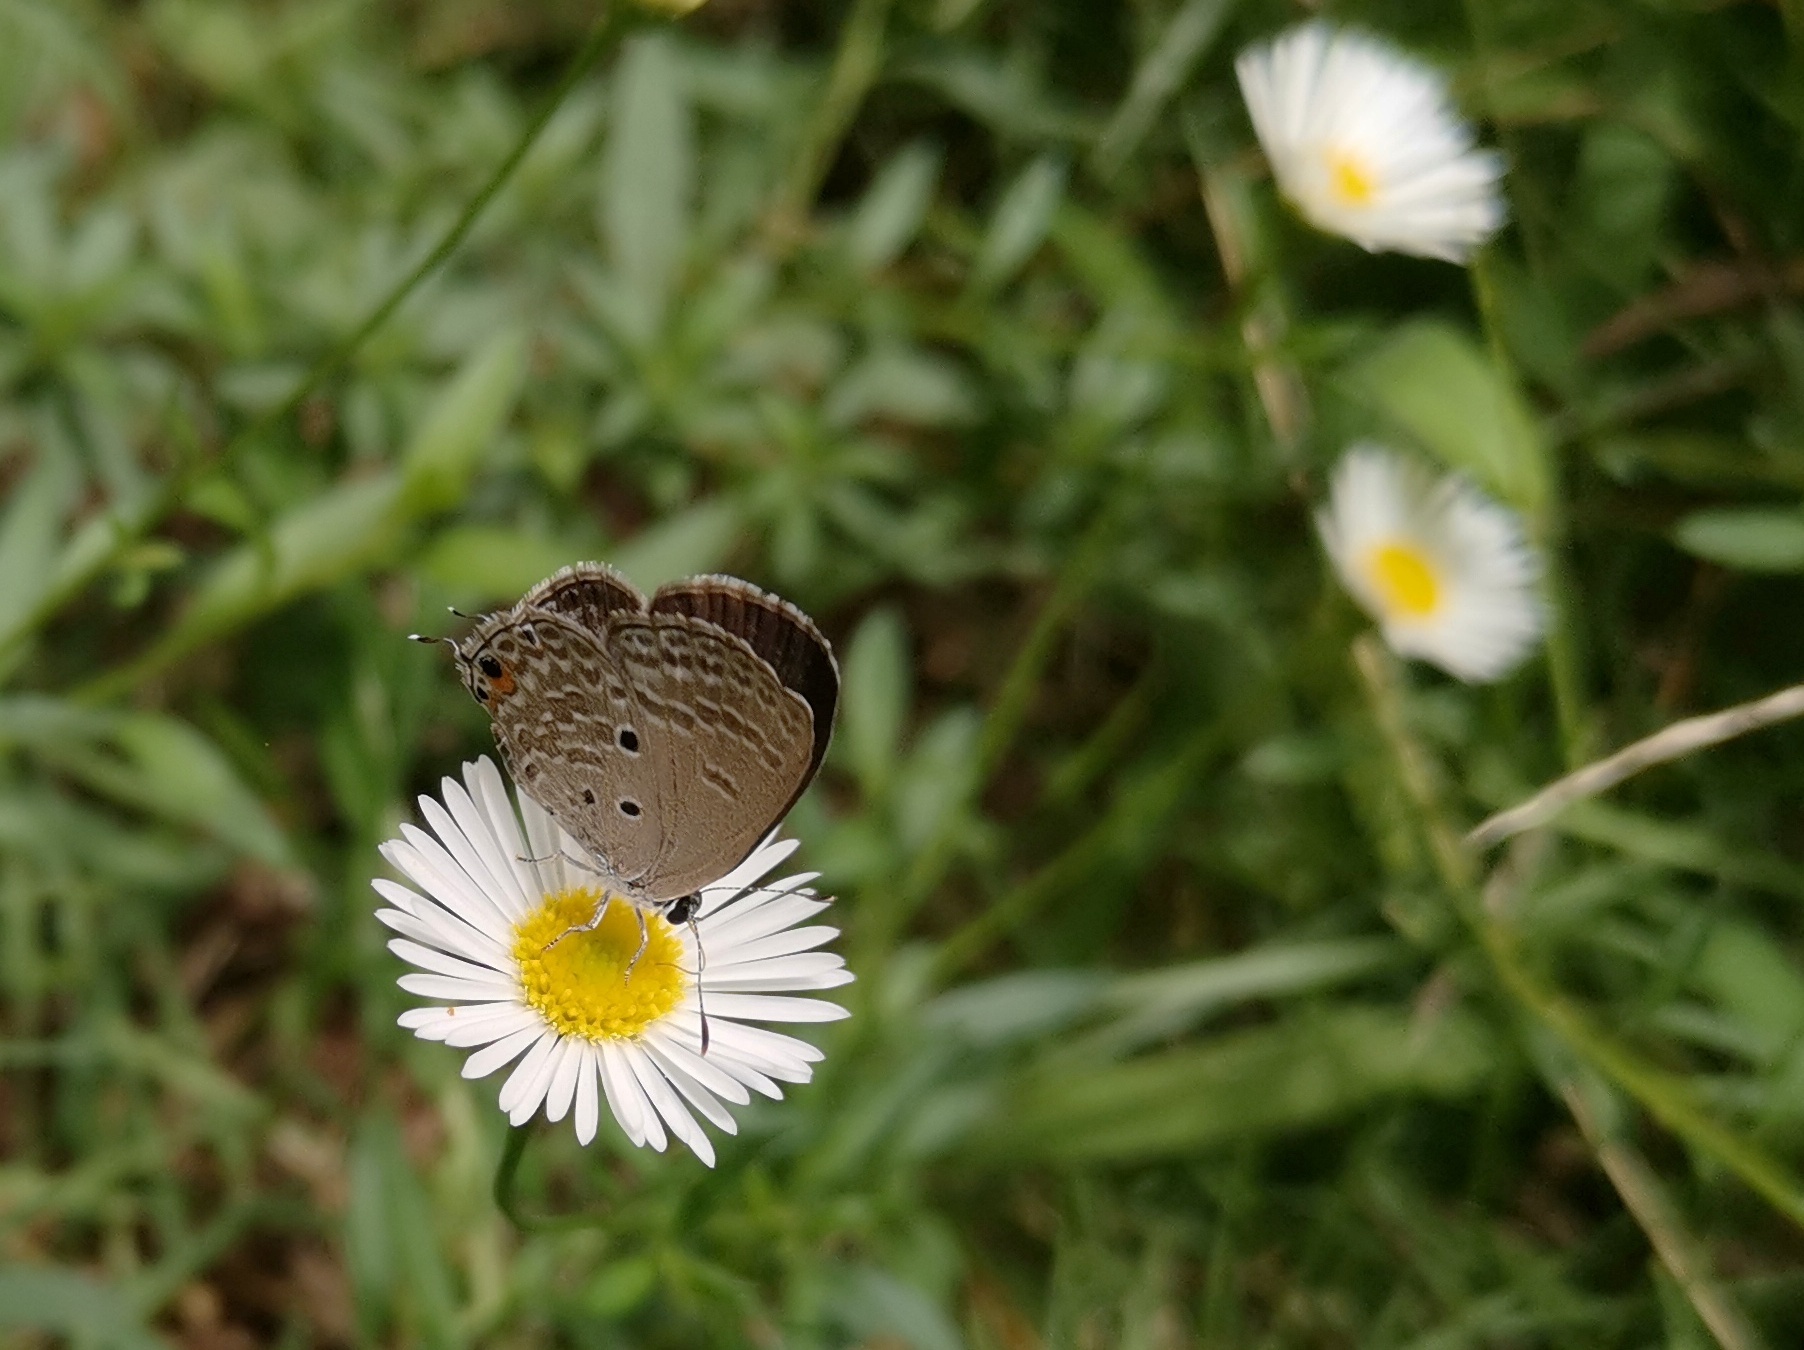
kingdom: Animalia
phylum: Arthropoda
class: Insecta
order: Lepidoptera
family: Lycaenidae
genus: Luthrodes
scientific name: Luthrodes pandava
